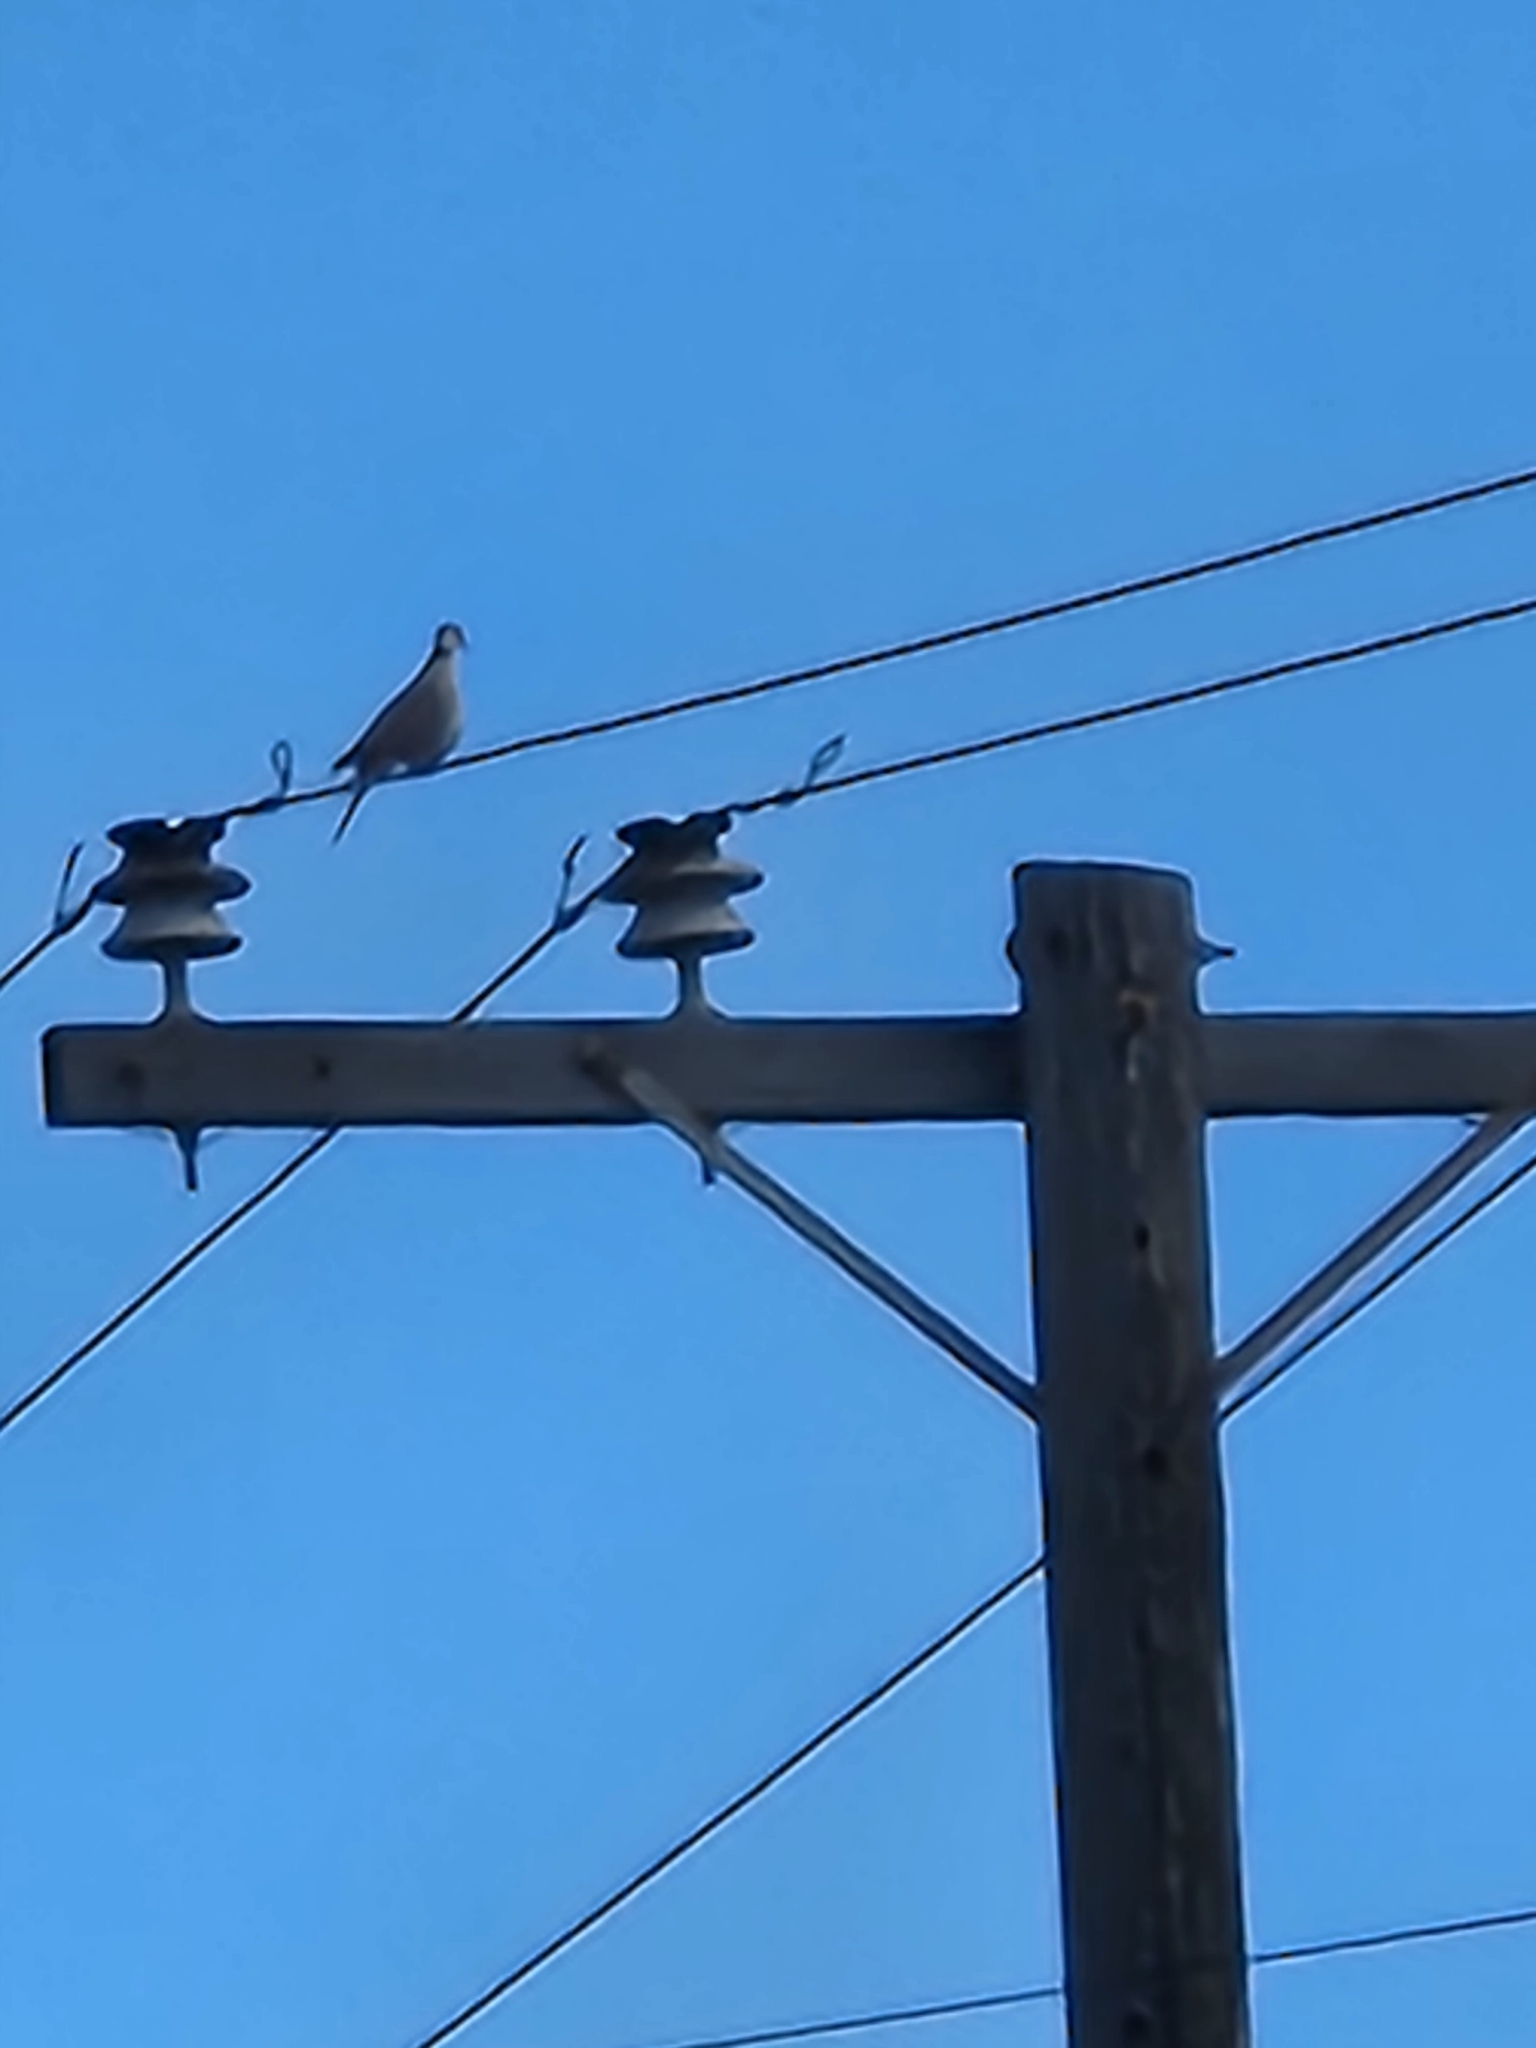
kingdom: Animalia
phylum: Chordata
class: Aves
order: Columbiformes
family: Columbidae
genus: Streptopelia
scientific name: Streptopelia decaocto
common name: Eurasian collared dove
